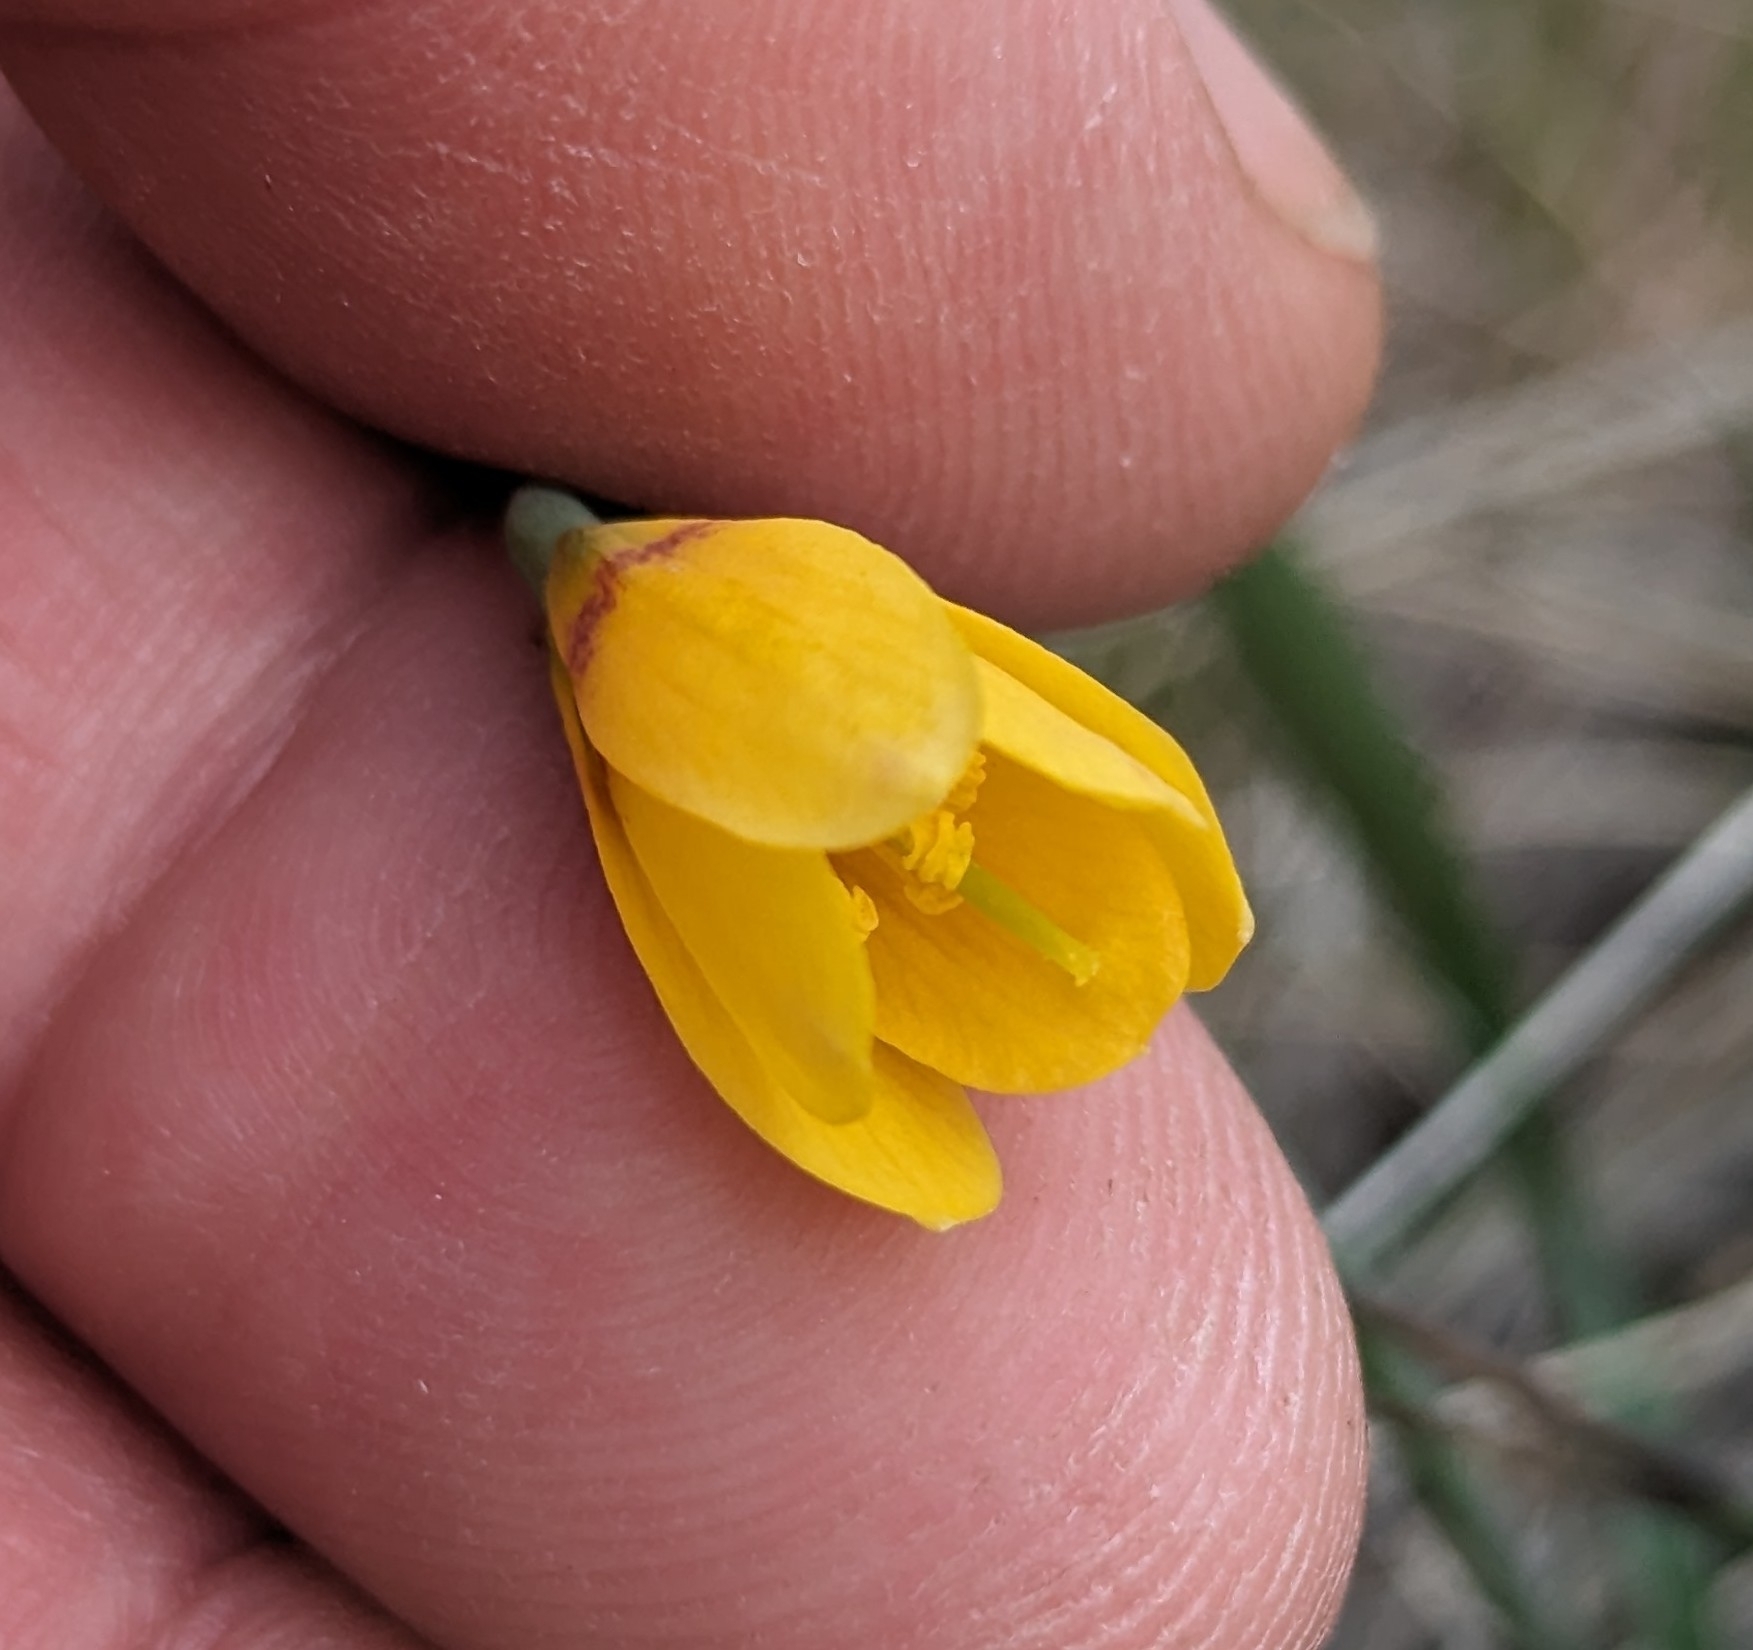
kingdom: Plantae
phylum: Tracheophyta
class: Liliopsida
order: Liliales
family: Liliaceae
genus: Fritillaria
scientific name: Fritillaria pudica
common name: Yellow fritillary
